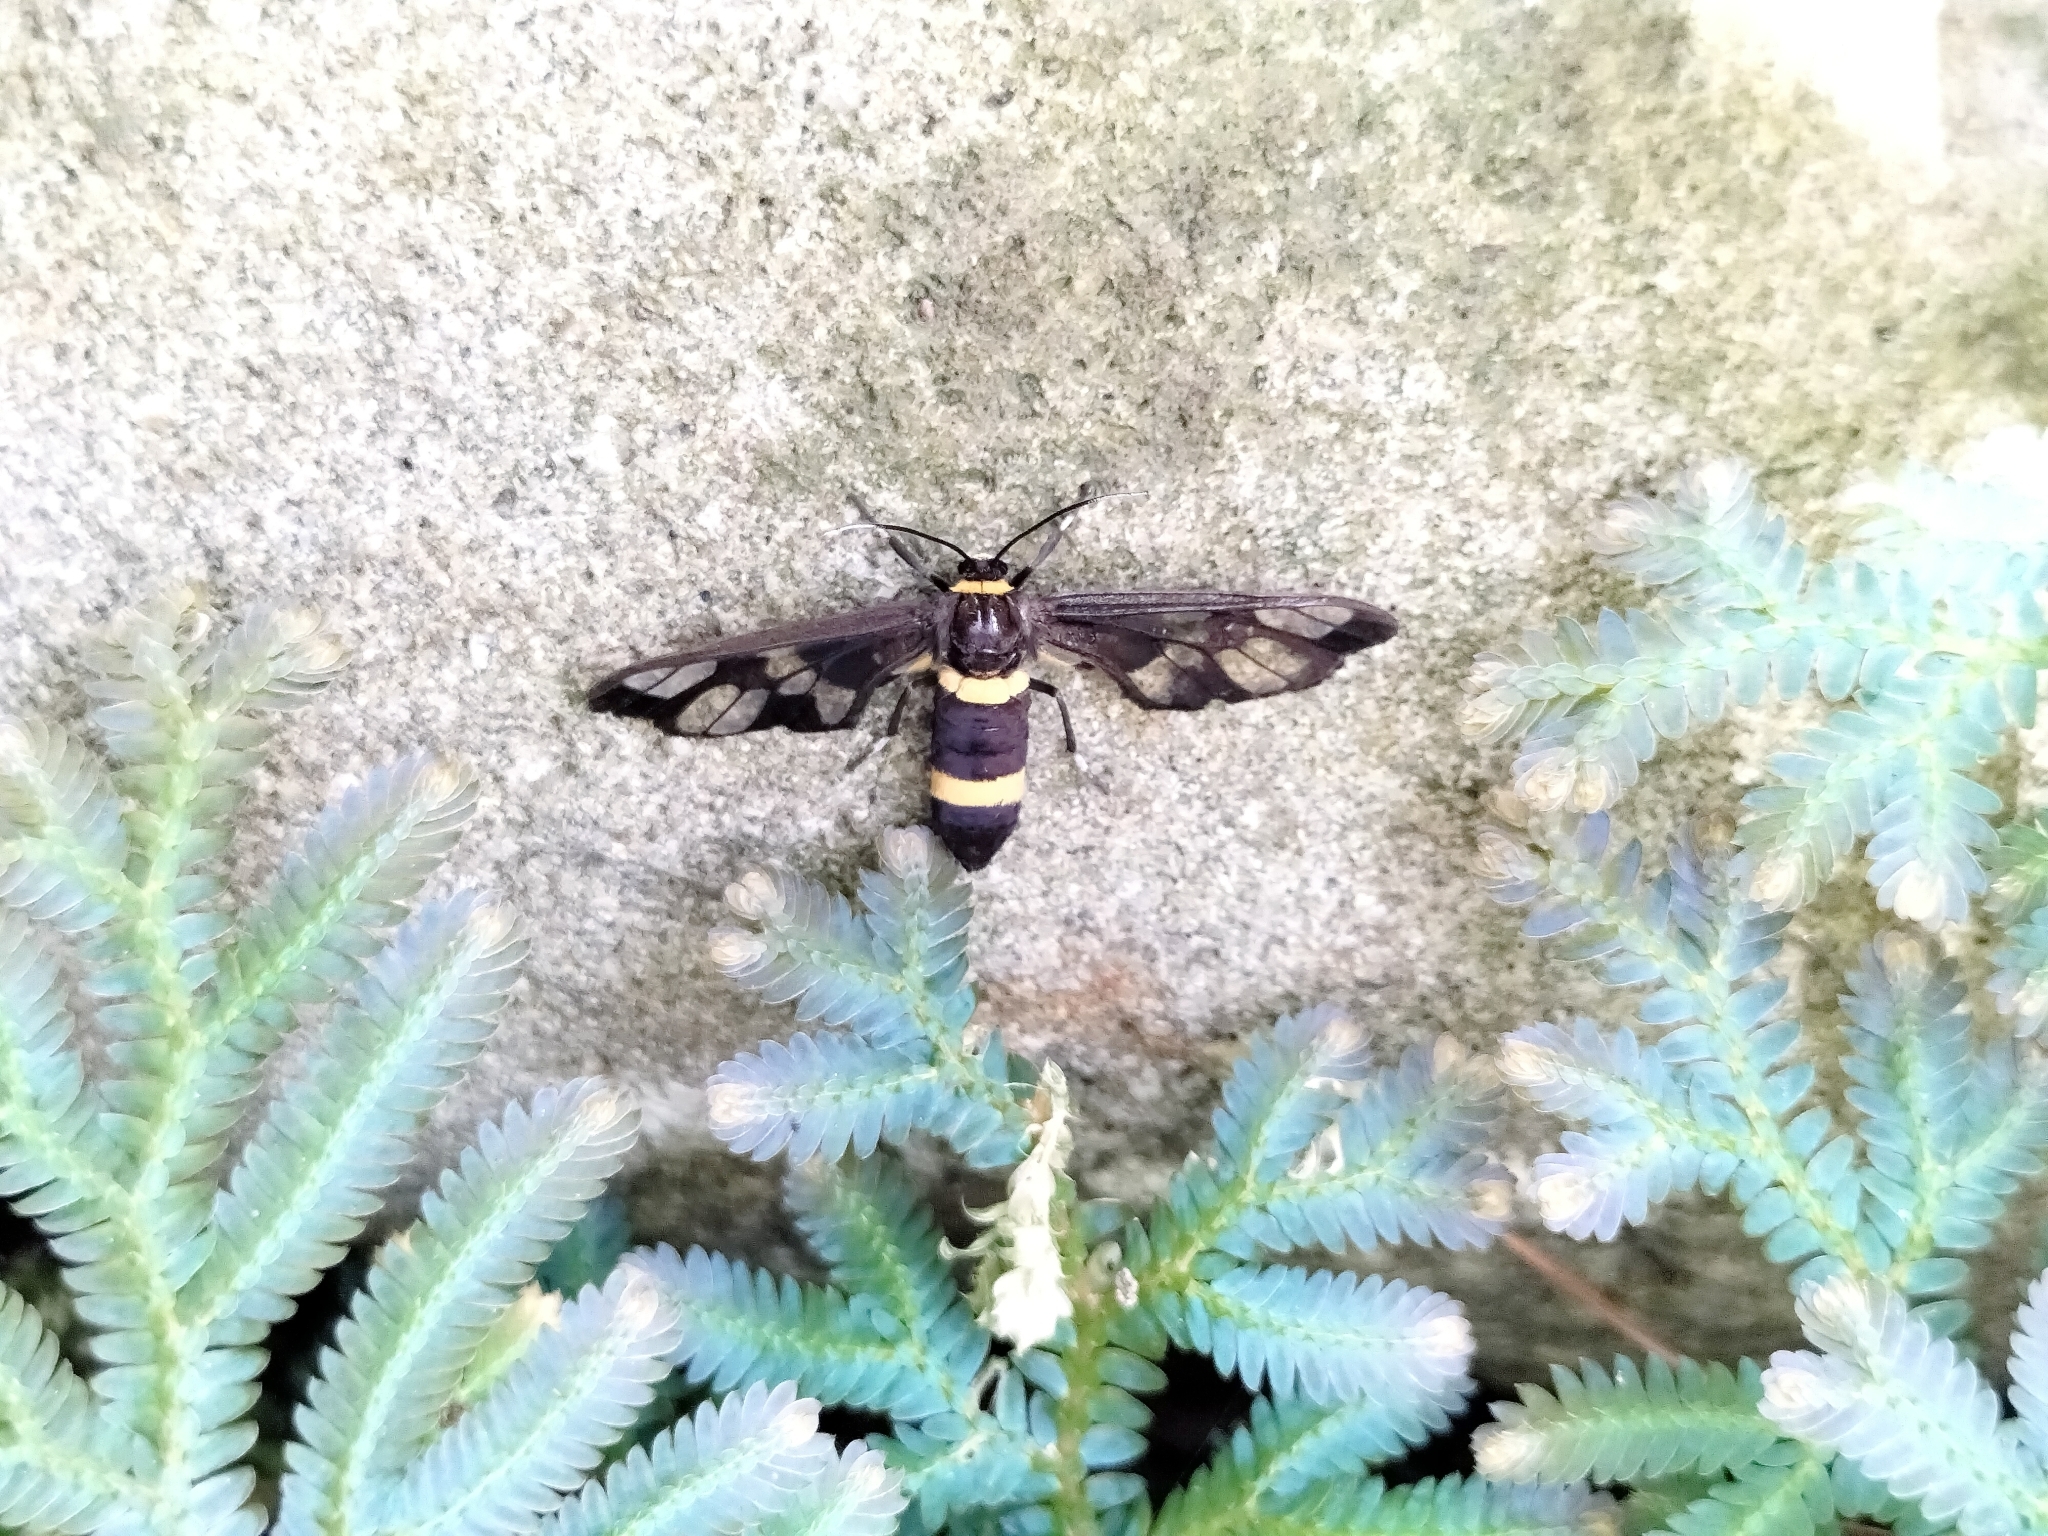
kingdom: Animalia
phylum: Arthropoda
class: Insecta
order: Lepidoptera
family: Erebidae
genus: Syntomoides
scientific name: Syntomoides imaon
